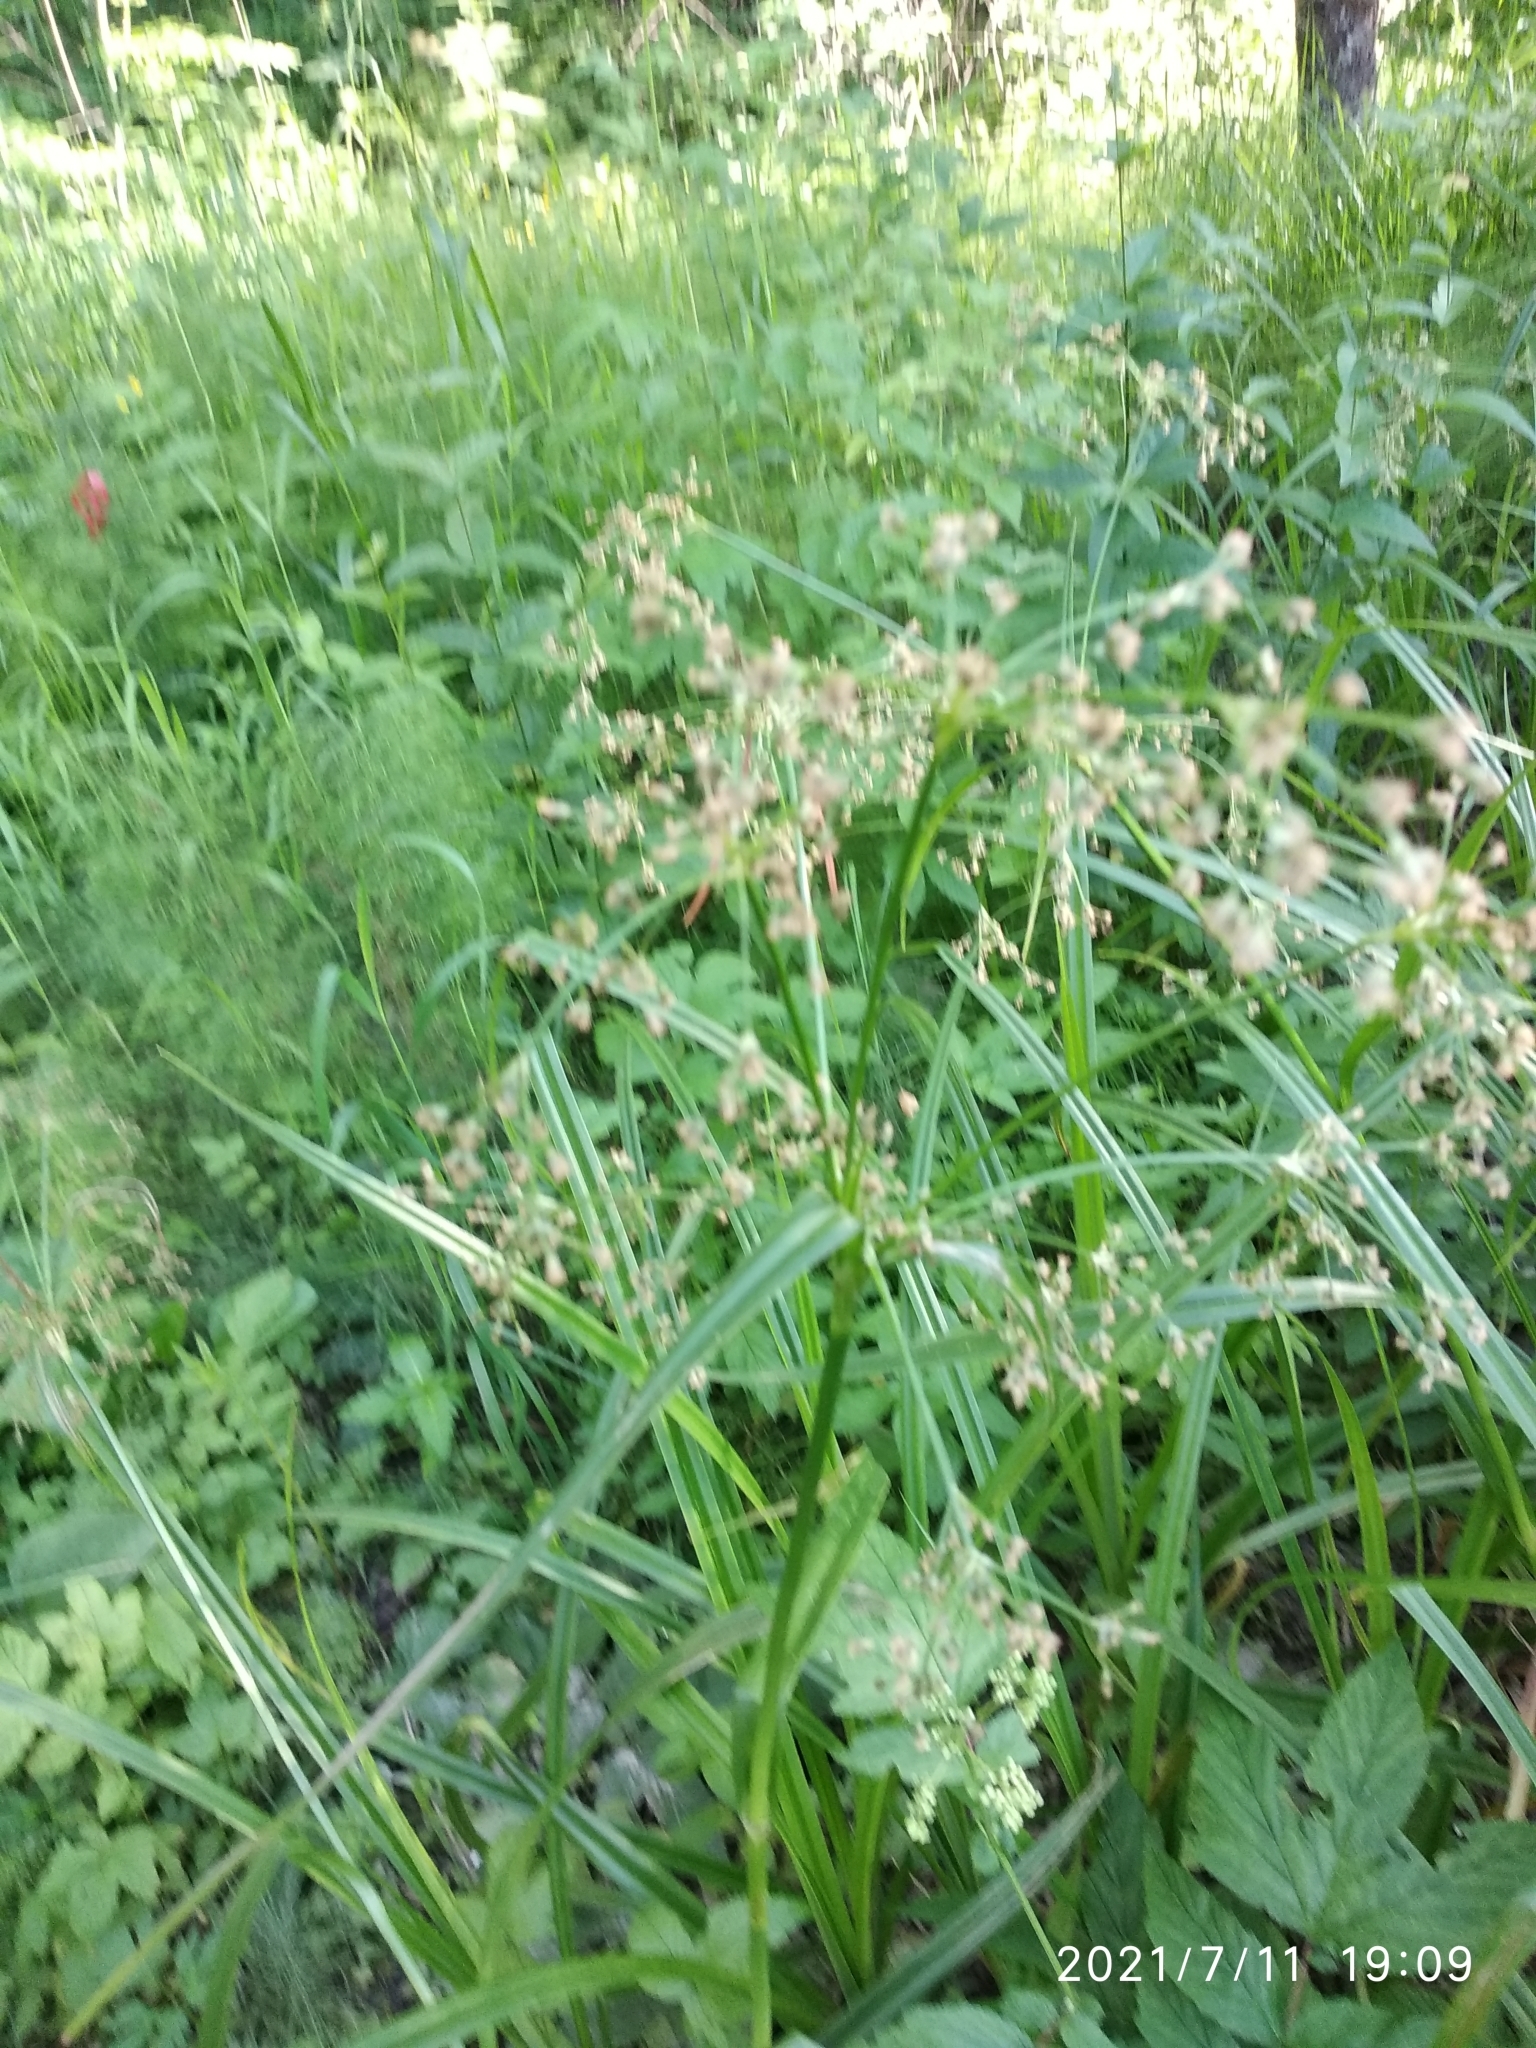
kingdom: Plantae
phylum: Tracheophyta
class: Liliopsida
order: Poales
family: Cyperaceae
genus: Scirpus
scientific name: Scirpus sylvaticus
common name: Wood club-rush
